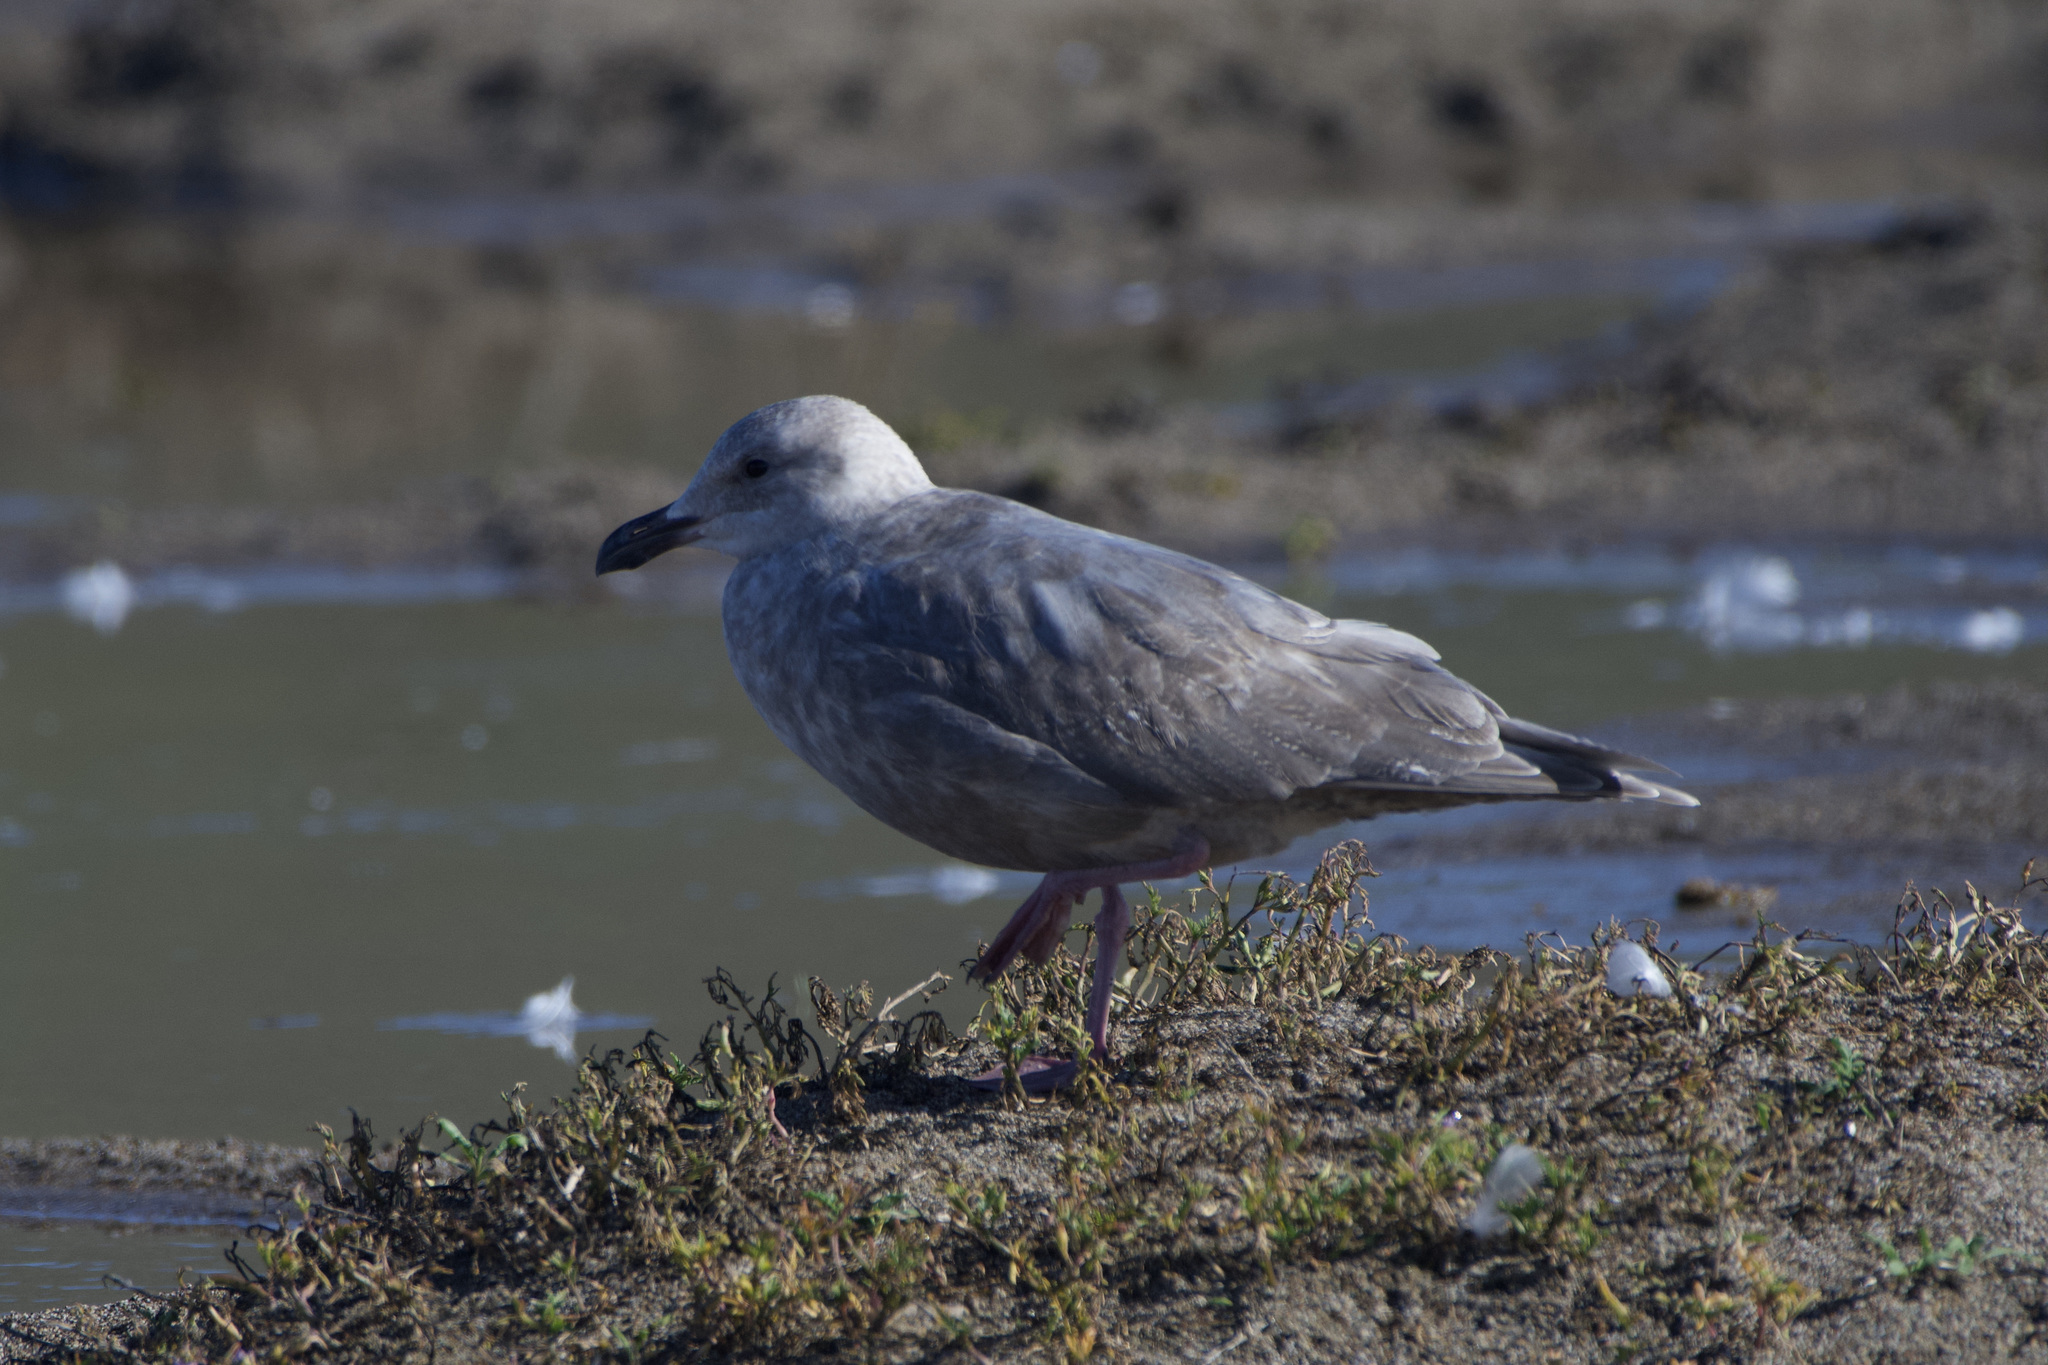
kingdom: Animalia
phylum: Chordata
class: Aves
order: Charadriiformes
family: Laridae
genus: Larus
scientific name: Larus glaucescens
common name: Glaucous-winged gull
